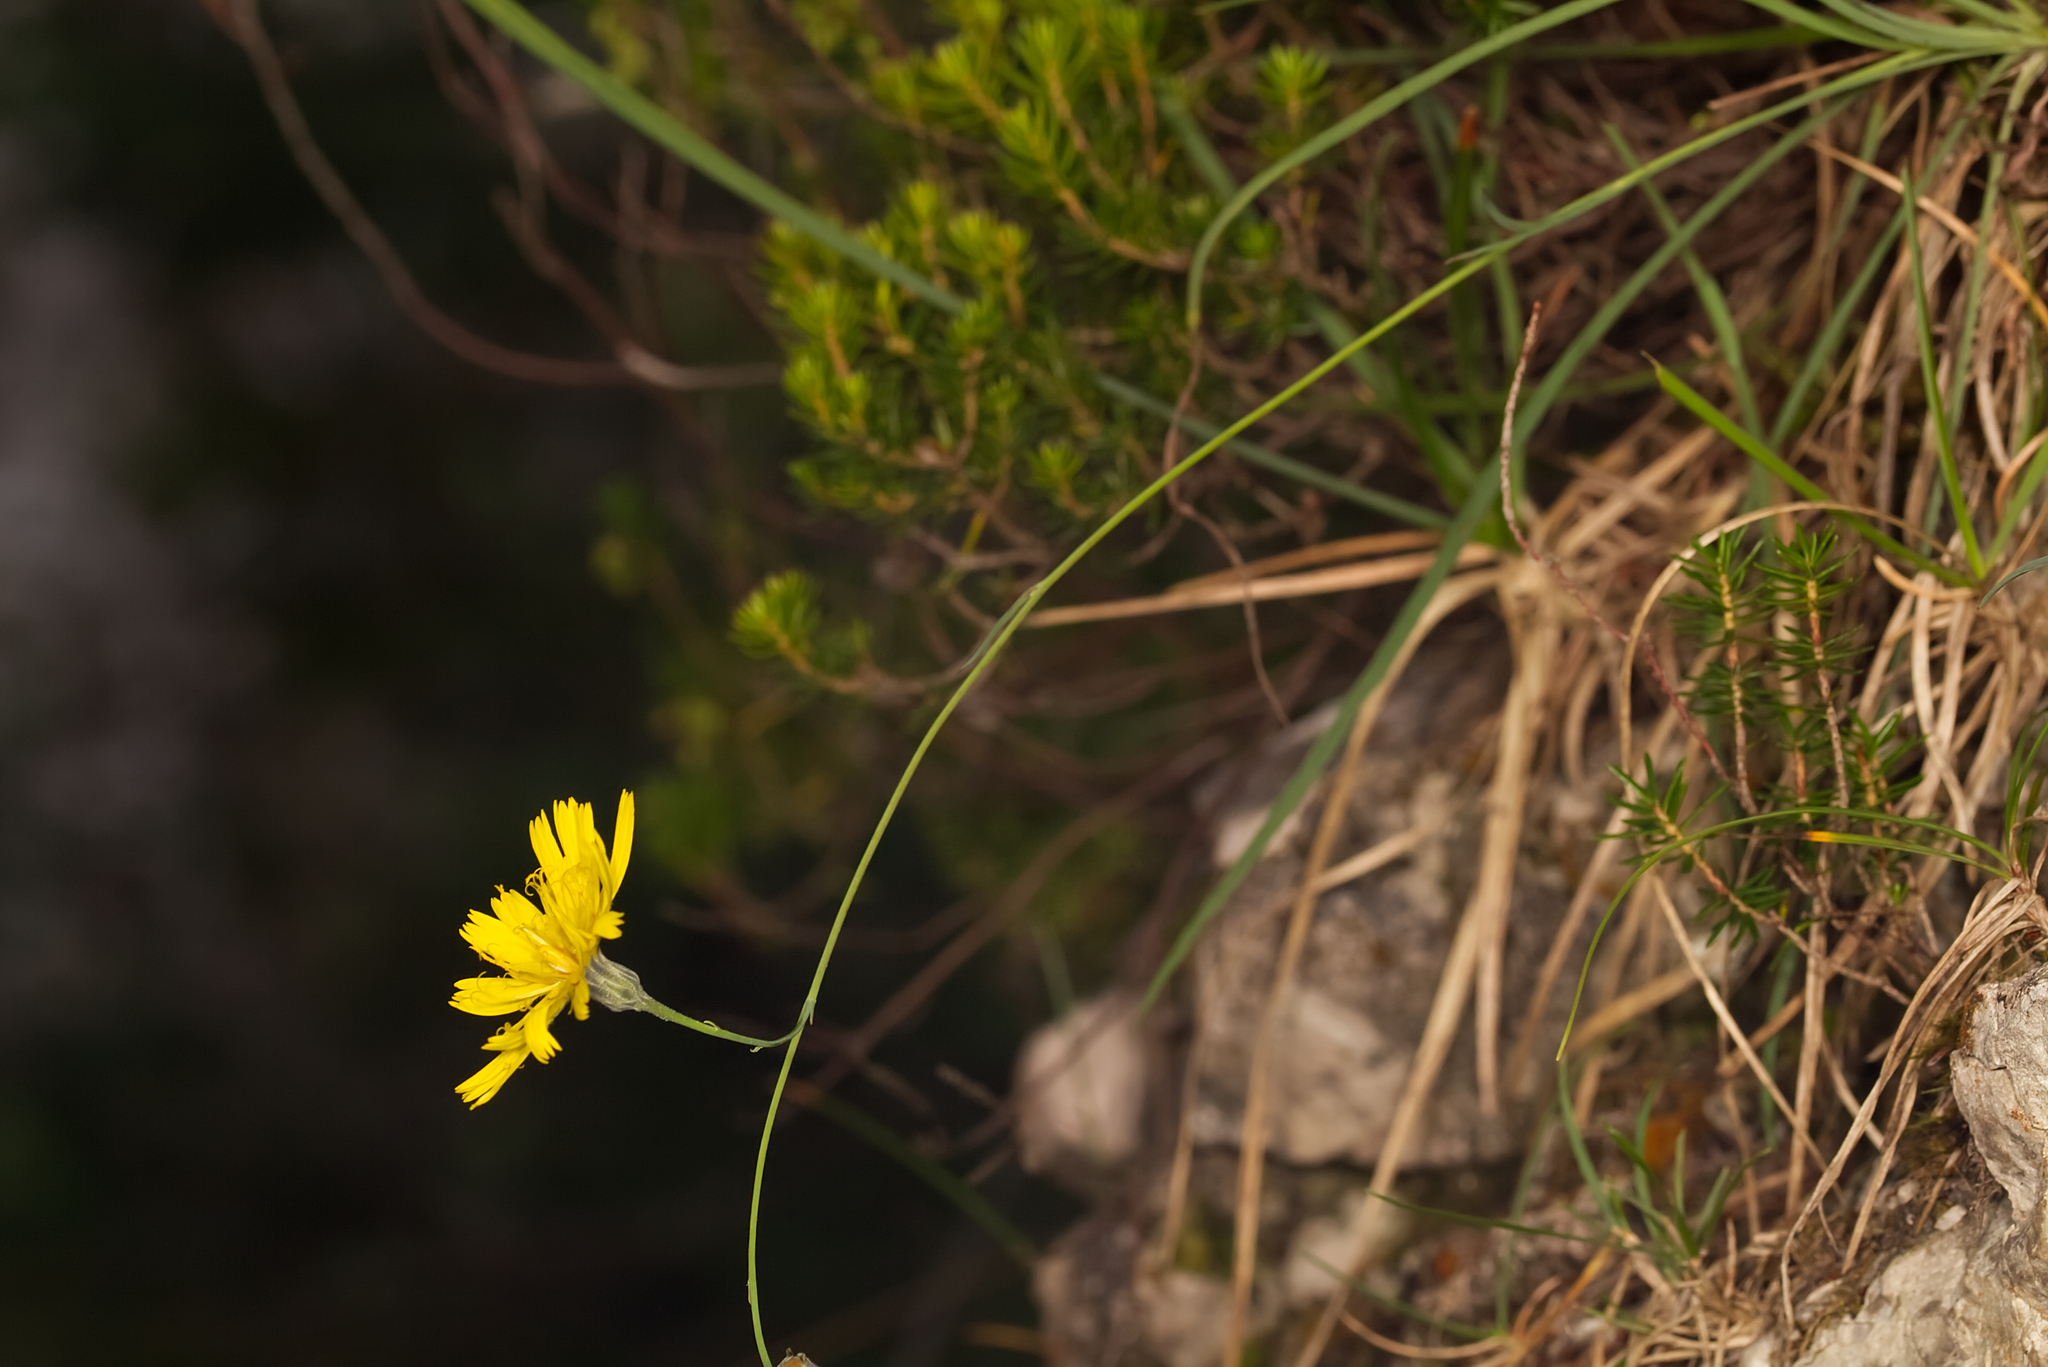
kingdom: Plantae
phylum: Tracheophyta
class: Magnoliopsida
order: Asterales
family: Asteraceae
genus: Hieracium
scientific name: Hieracium porrifolium
